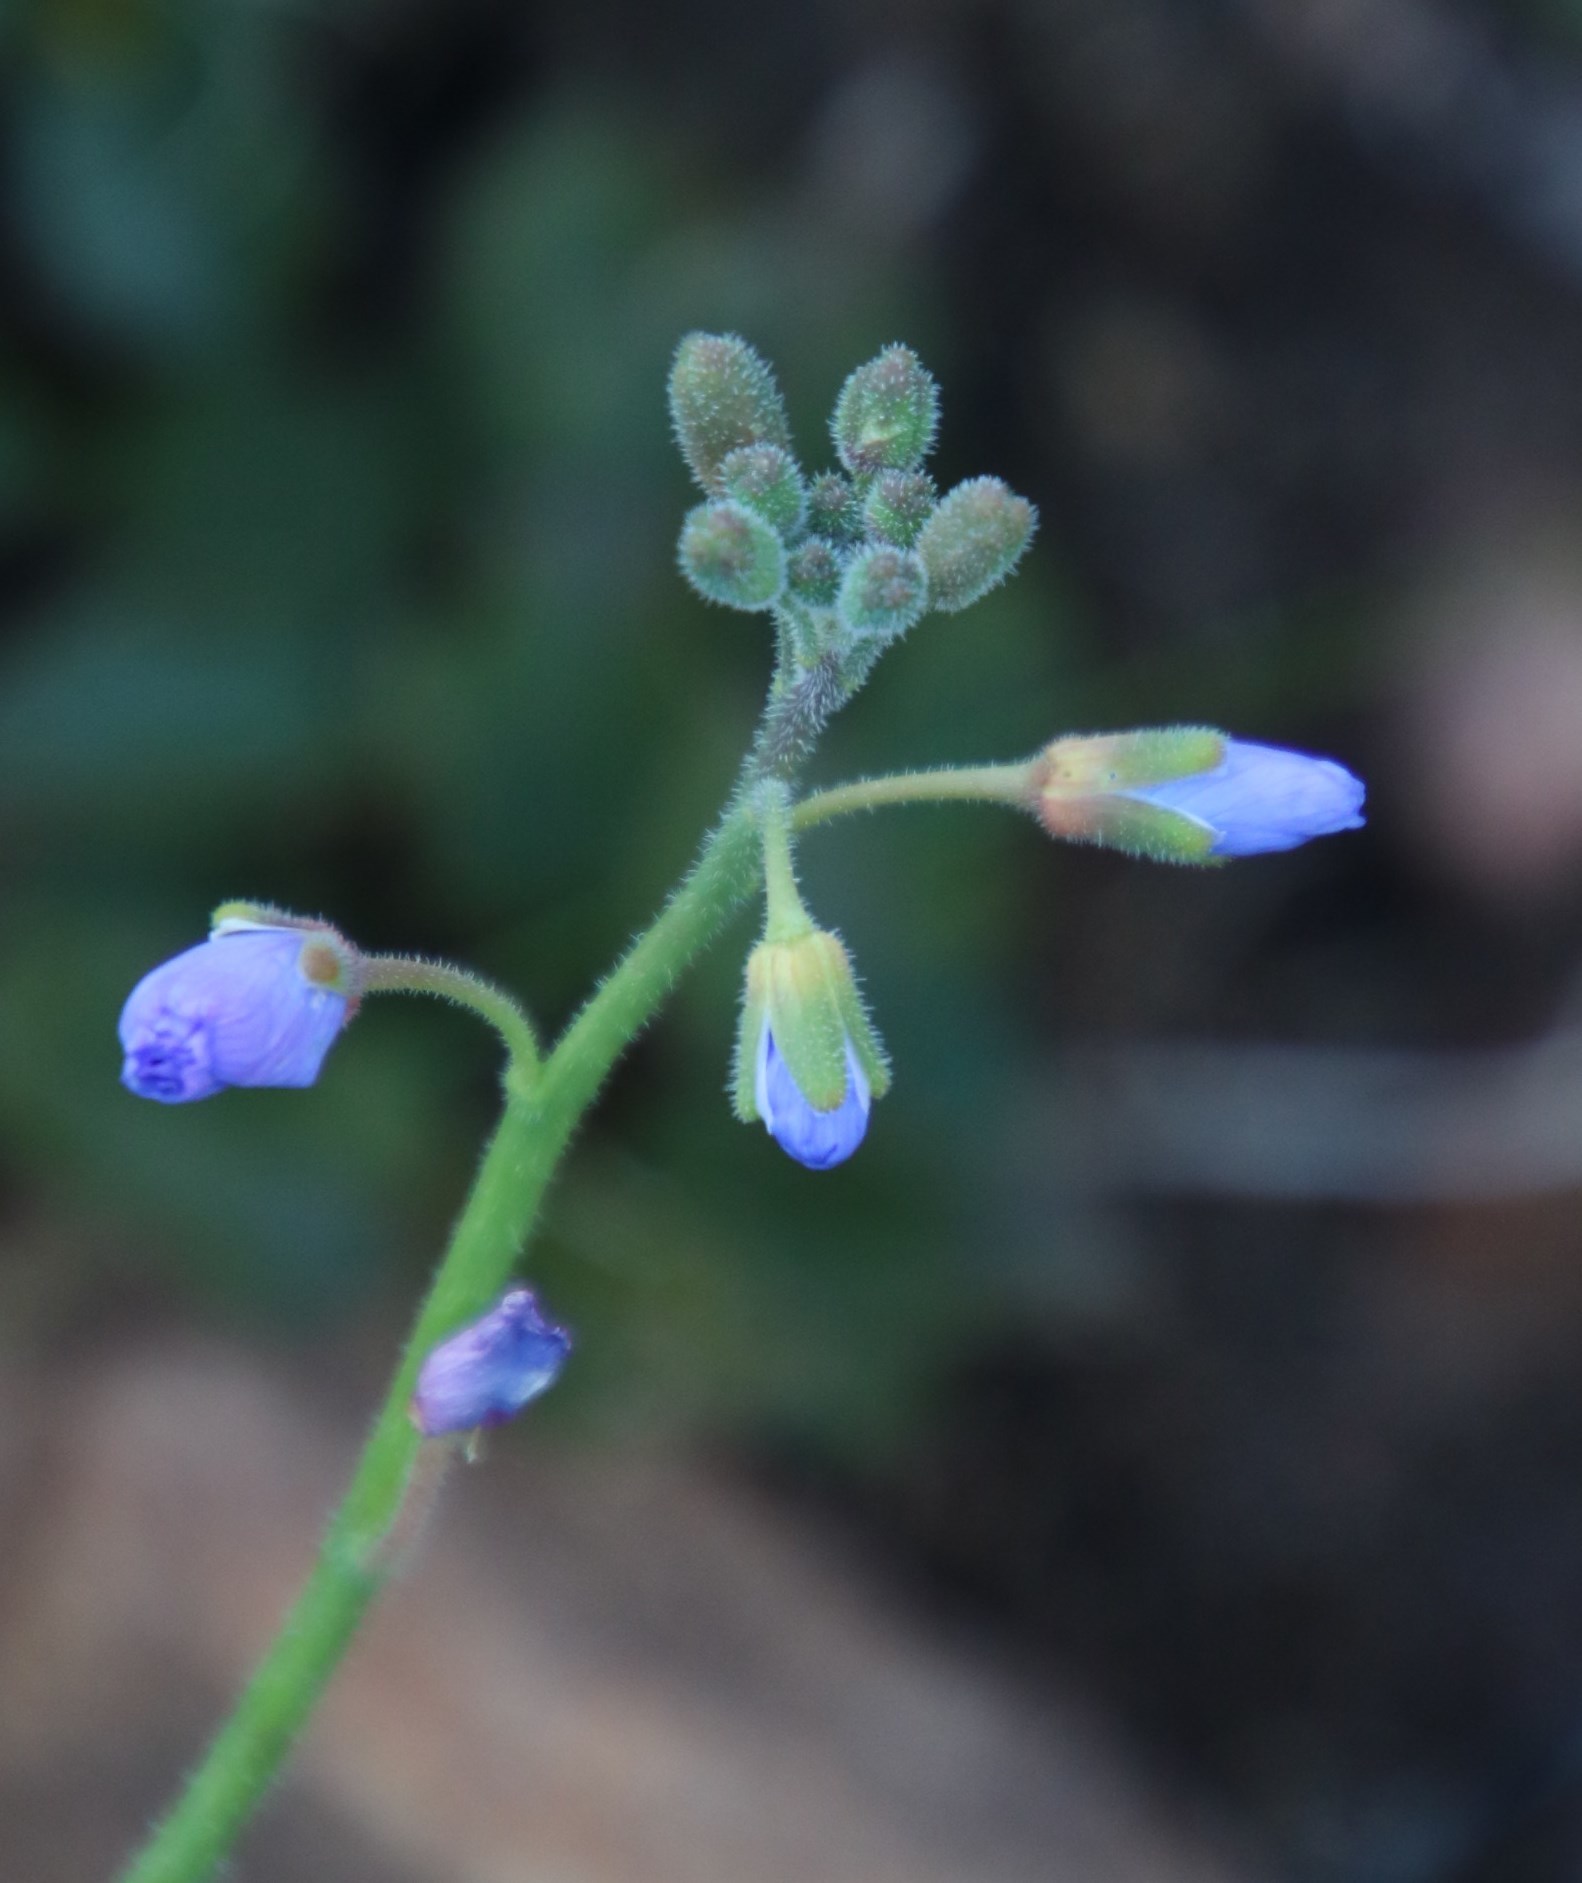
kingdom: Plantae
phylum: Tracheophyta
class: Magnoliopsida
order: Brassicales
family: Brassicaceae
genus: Heliophila
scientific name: Heliophila africana
